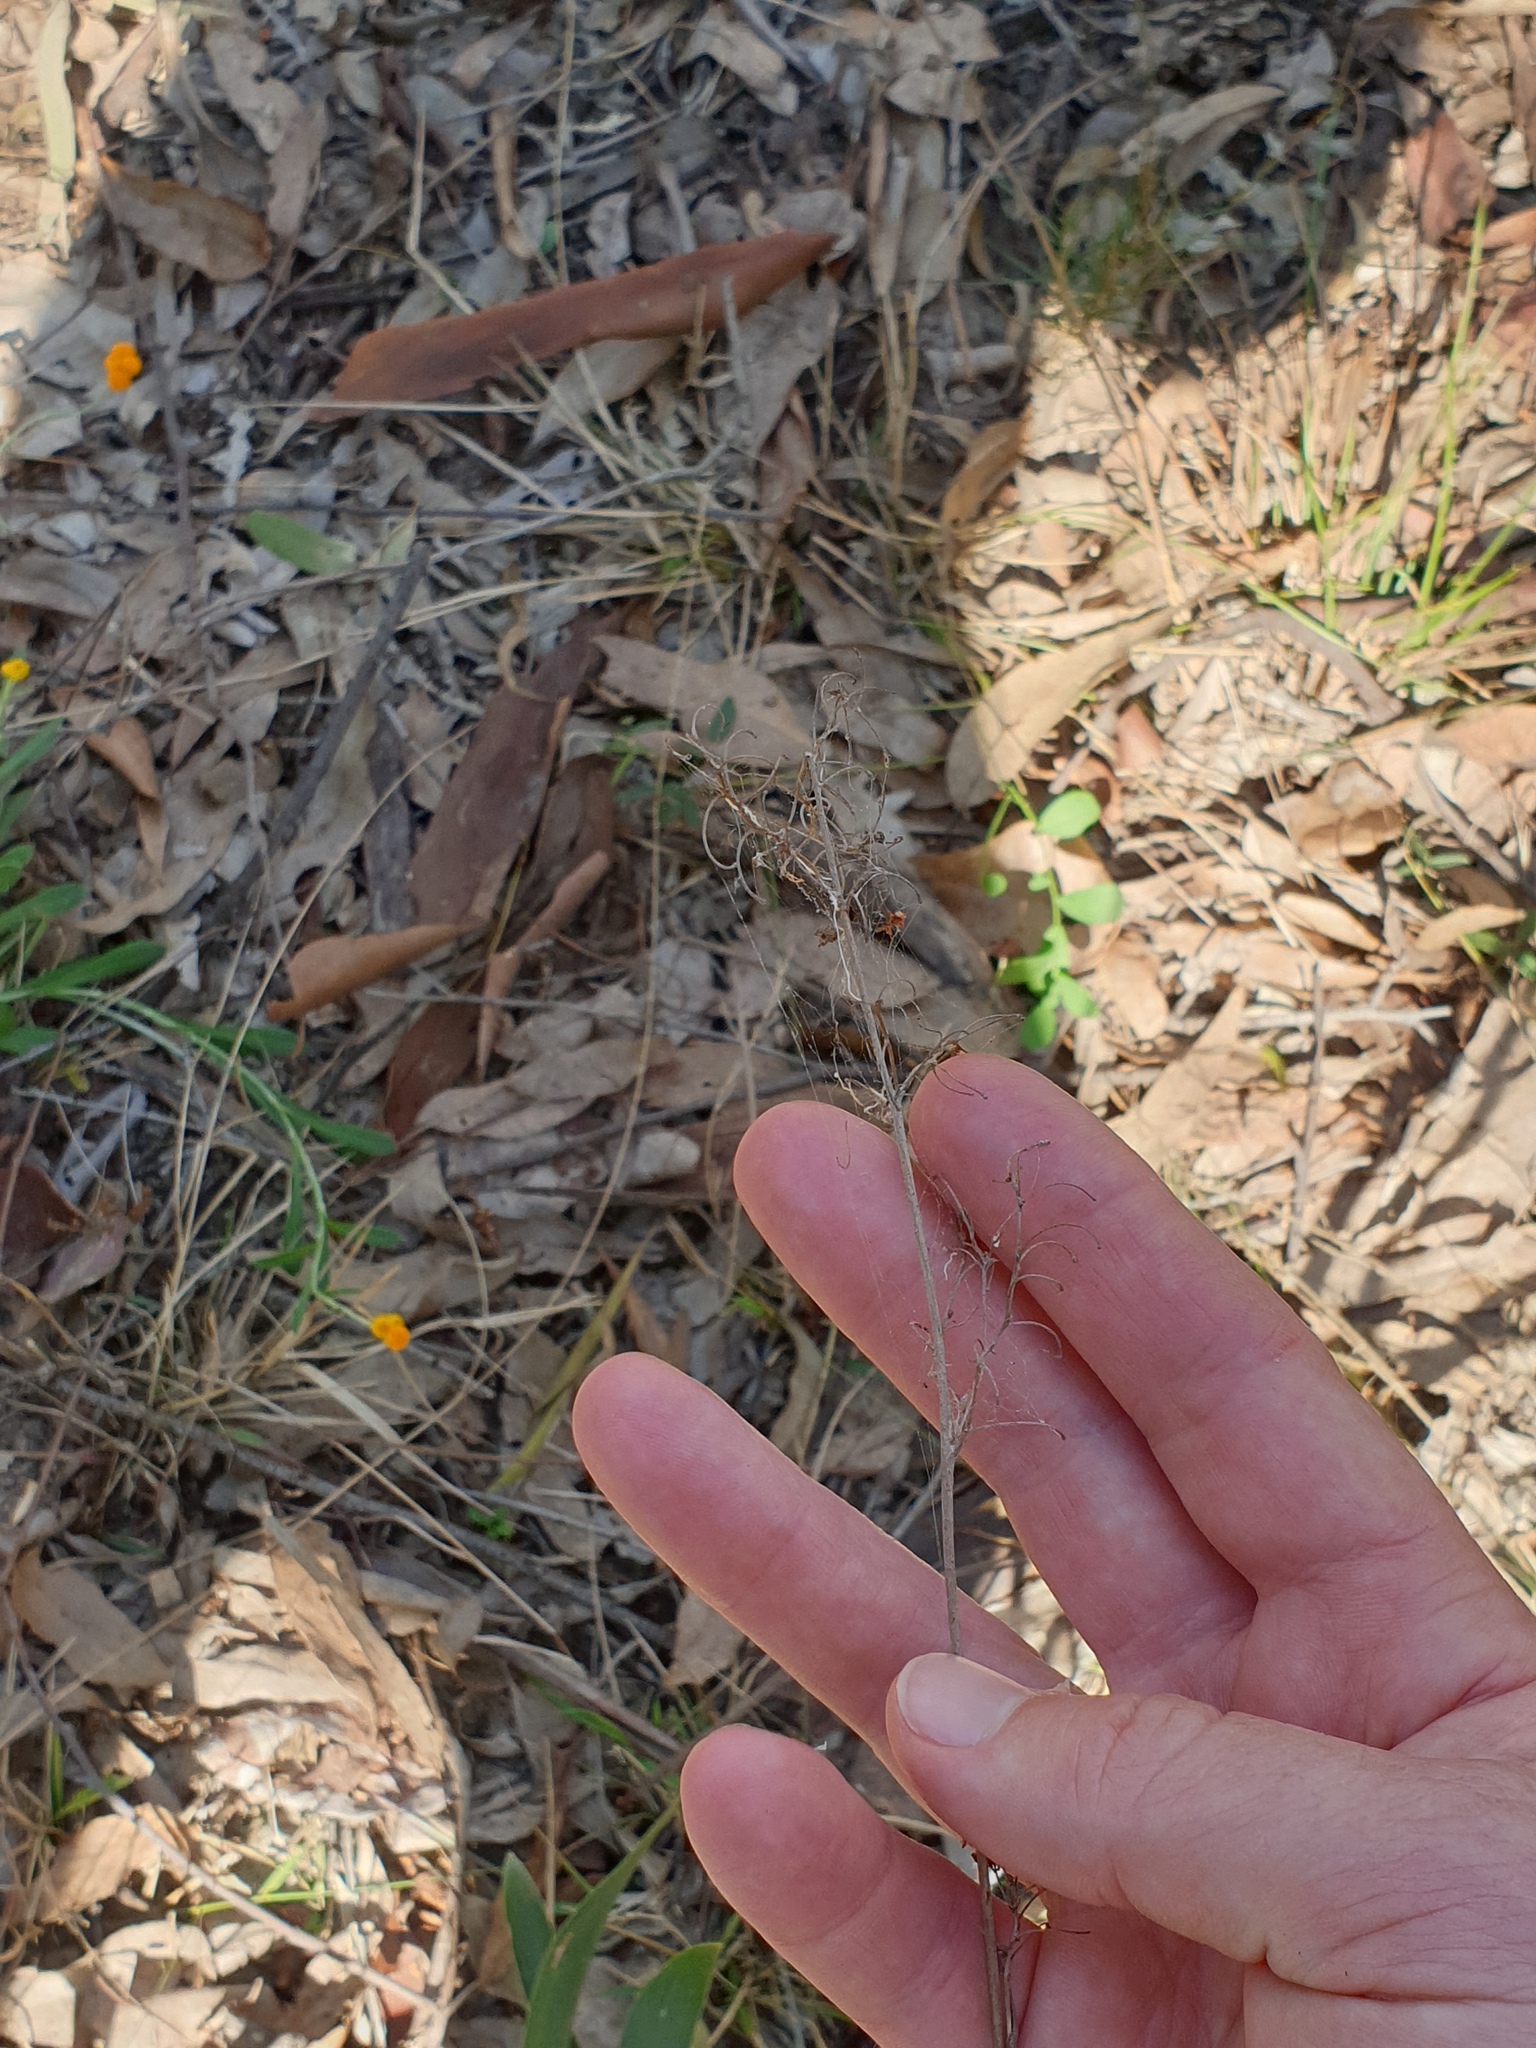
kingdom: Plantae
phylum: Tracheophyta
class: Liliopsida
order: Asparagales
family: Asphodelaceae
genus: Dianella
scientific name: Dianella longifolia
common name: Blue flax-lily
